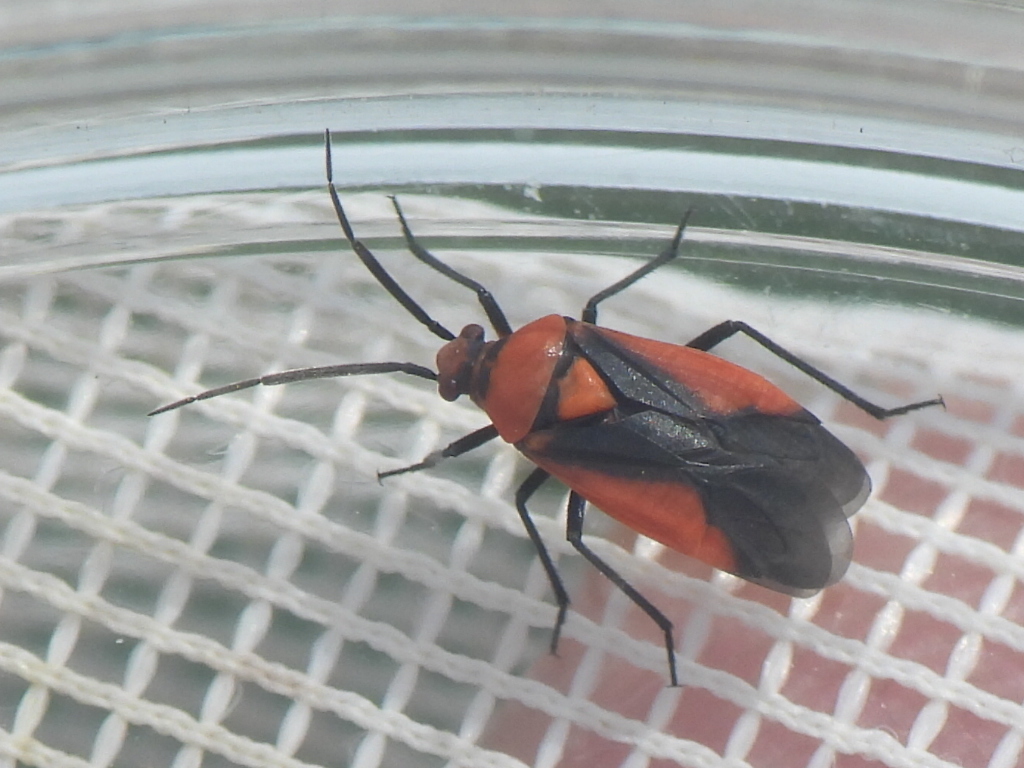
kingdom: Animalia
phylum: Arthropoda
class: Insecta
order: Hemiptera
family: Miridae
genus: Oncerometopus
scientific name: Oncerometopus nigriclavus
